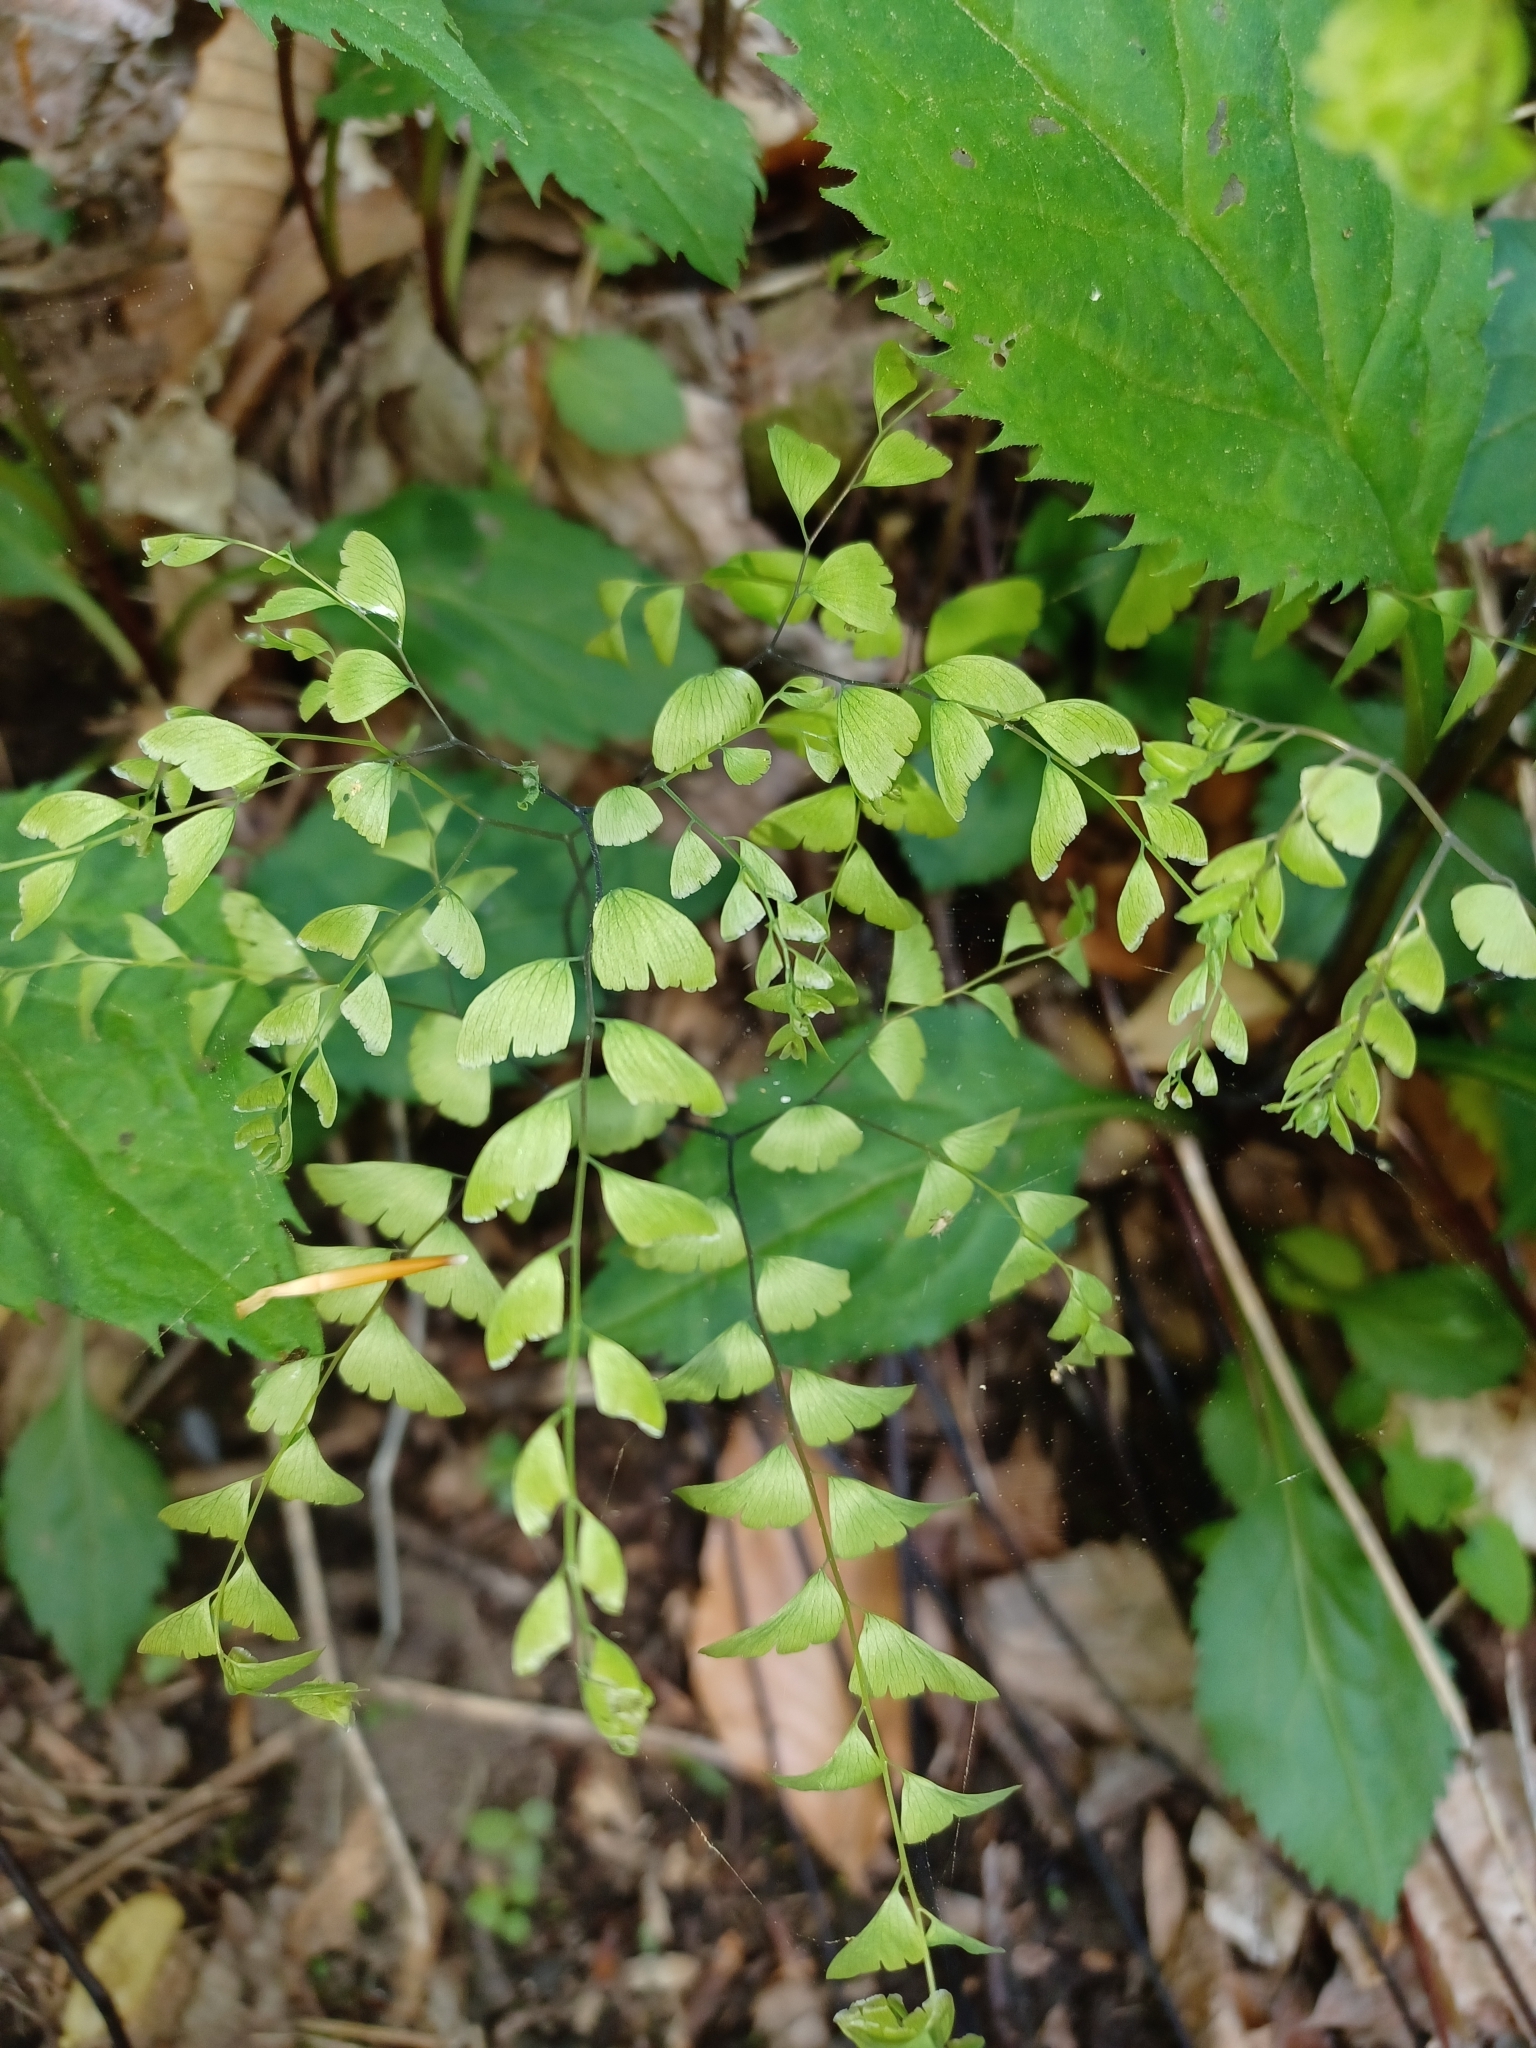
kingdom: Plantae
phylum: Tracheophyta
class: Polypodiopsida
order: Polypodiales
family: Pteridaceae
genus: Adiantum
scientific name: Adiantum pedatum
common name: Five-finger fern
